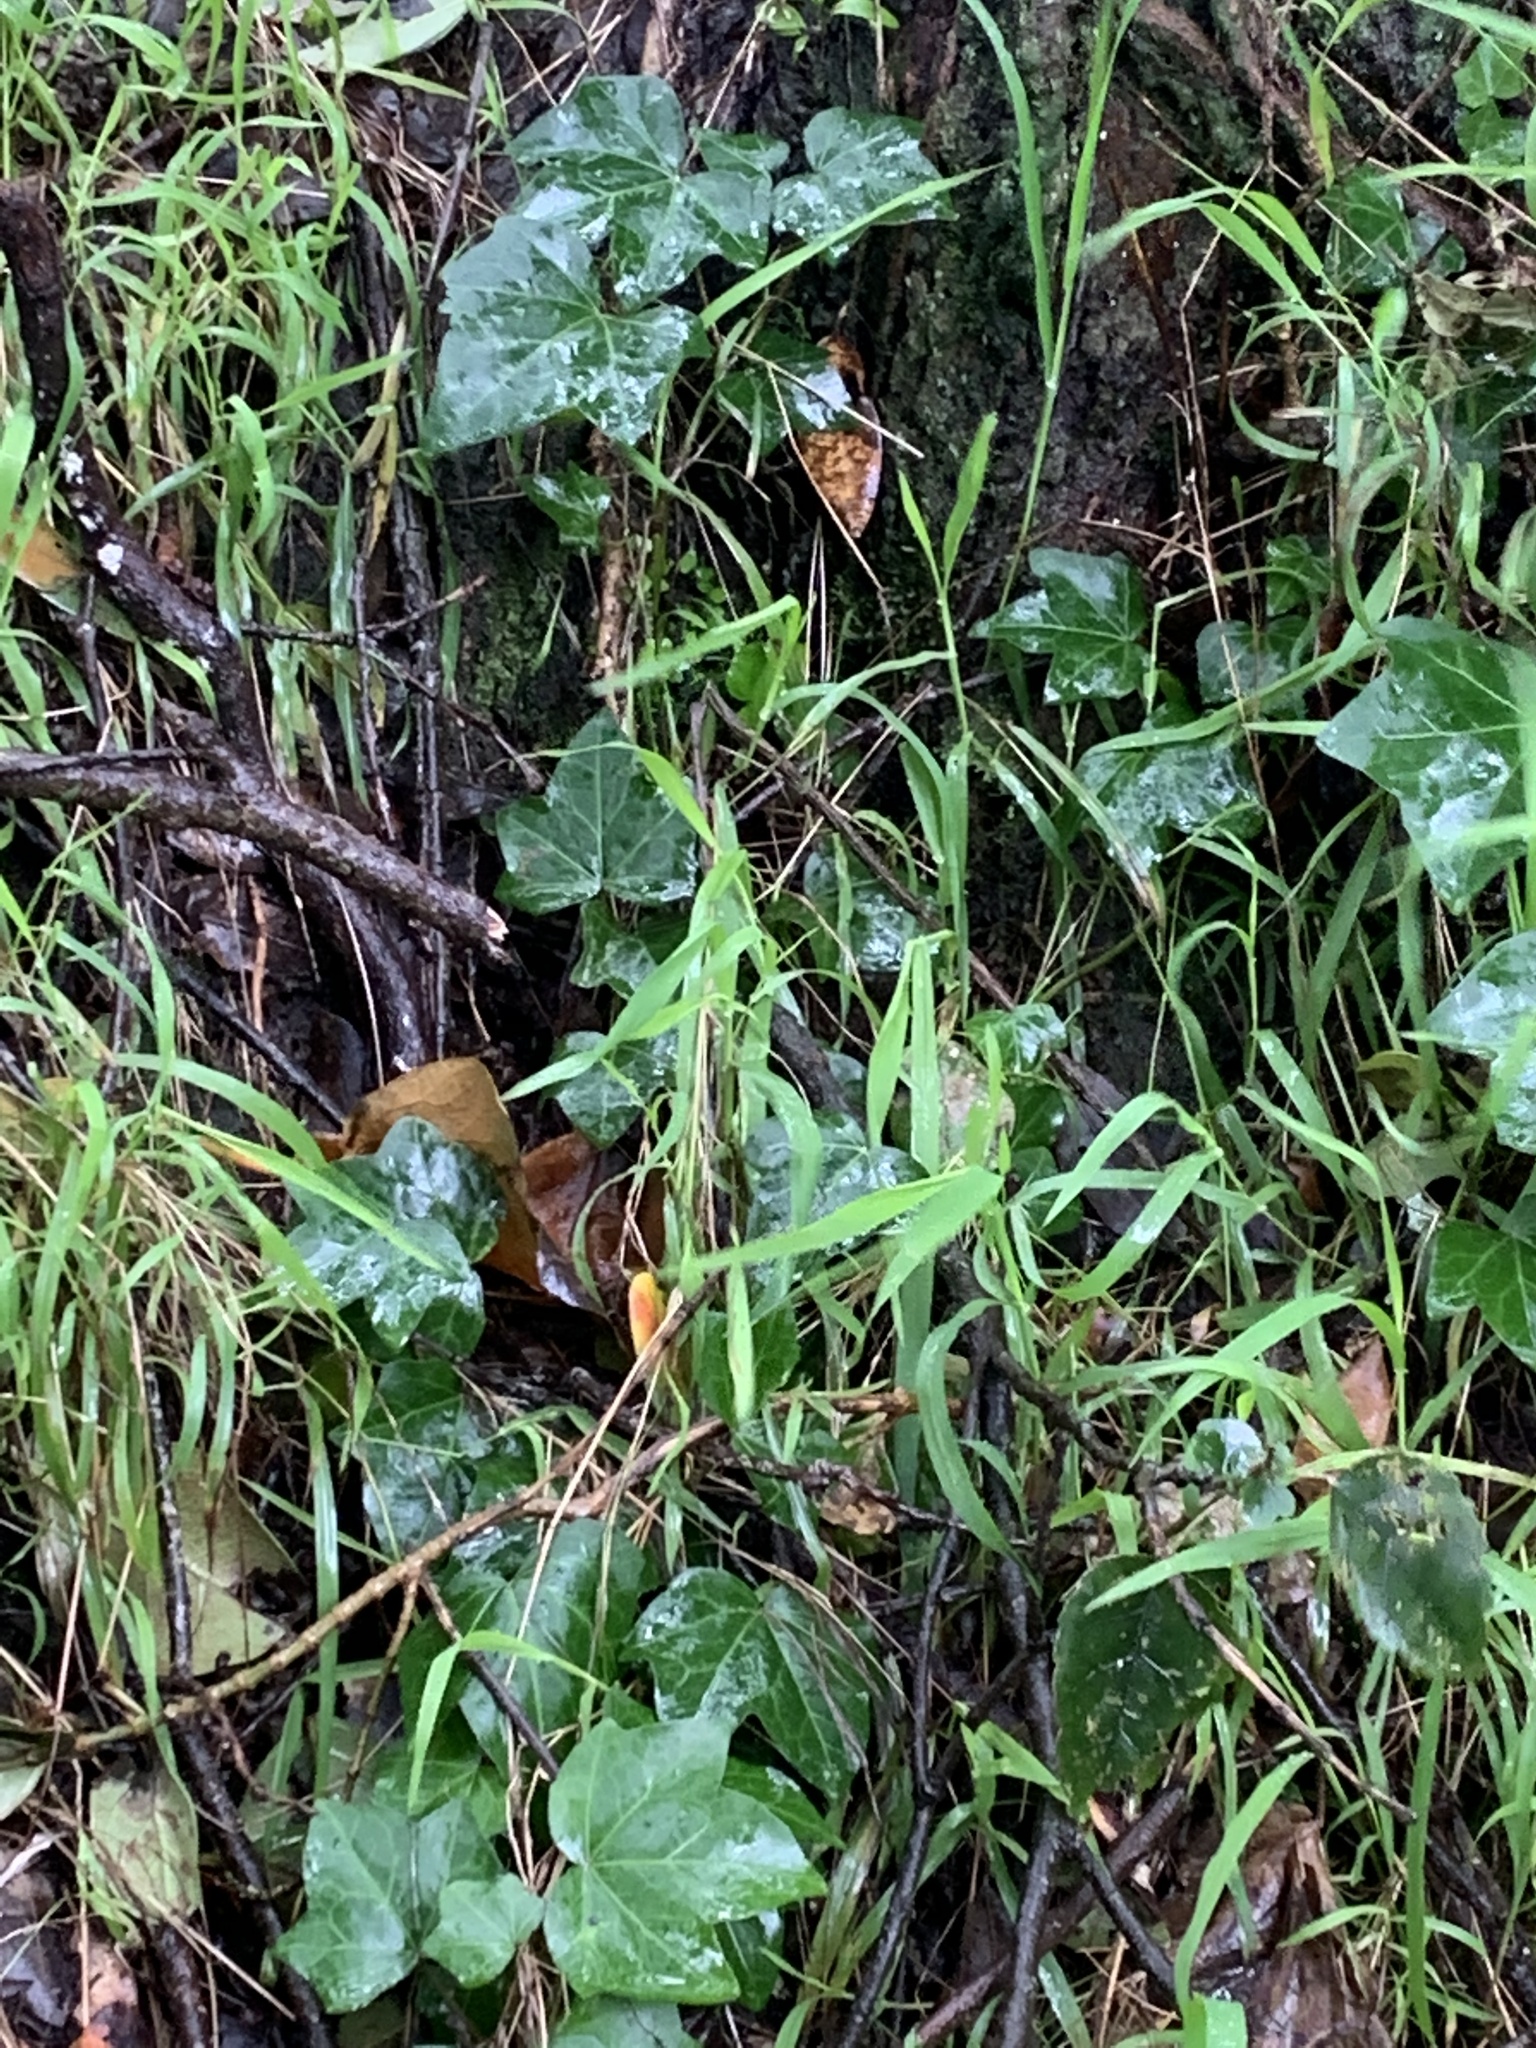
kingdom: Plantae
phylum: Tracheophyta
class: Magnoliopsida
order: Apiales
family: Araliaceae
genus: Hedera
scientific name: Hedera helix
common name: Ivy
